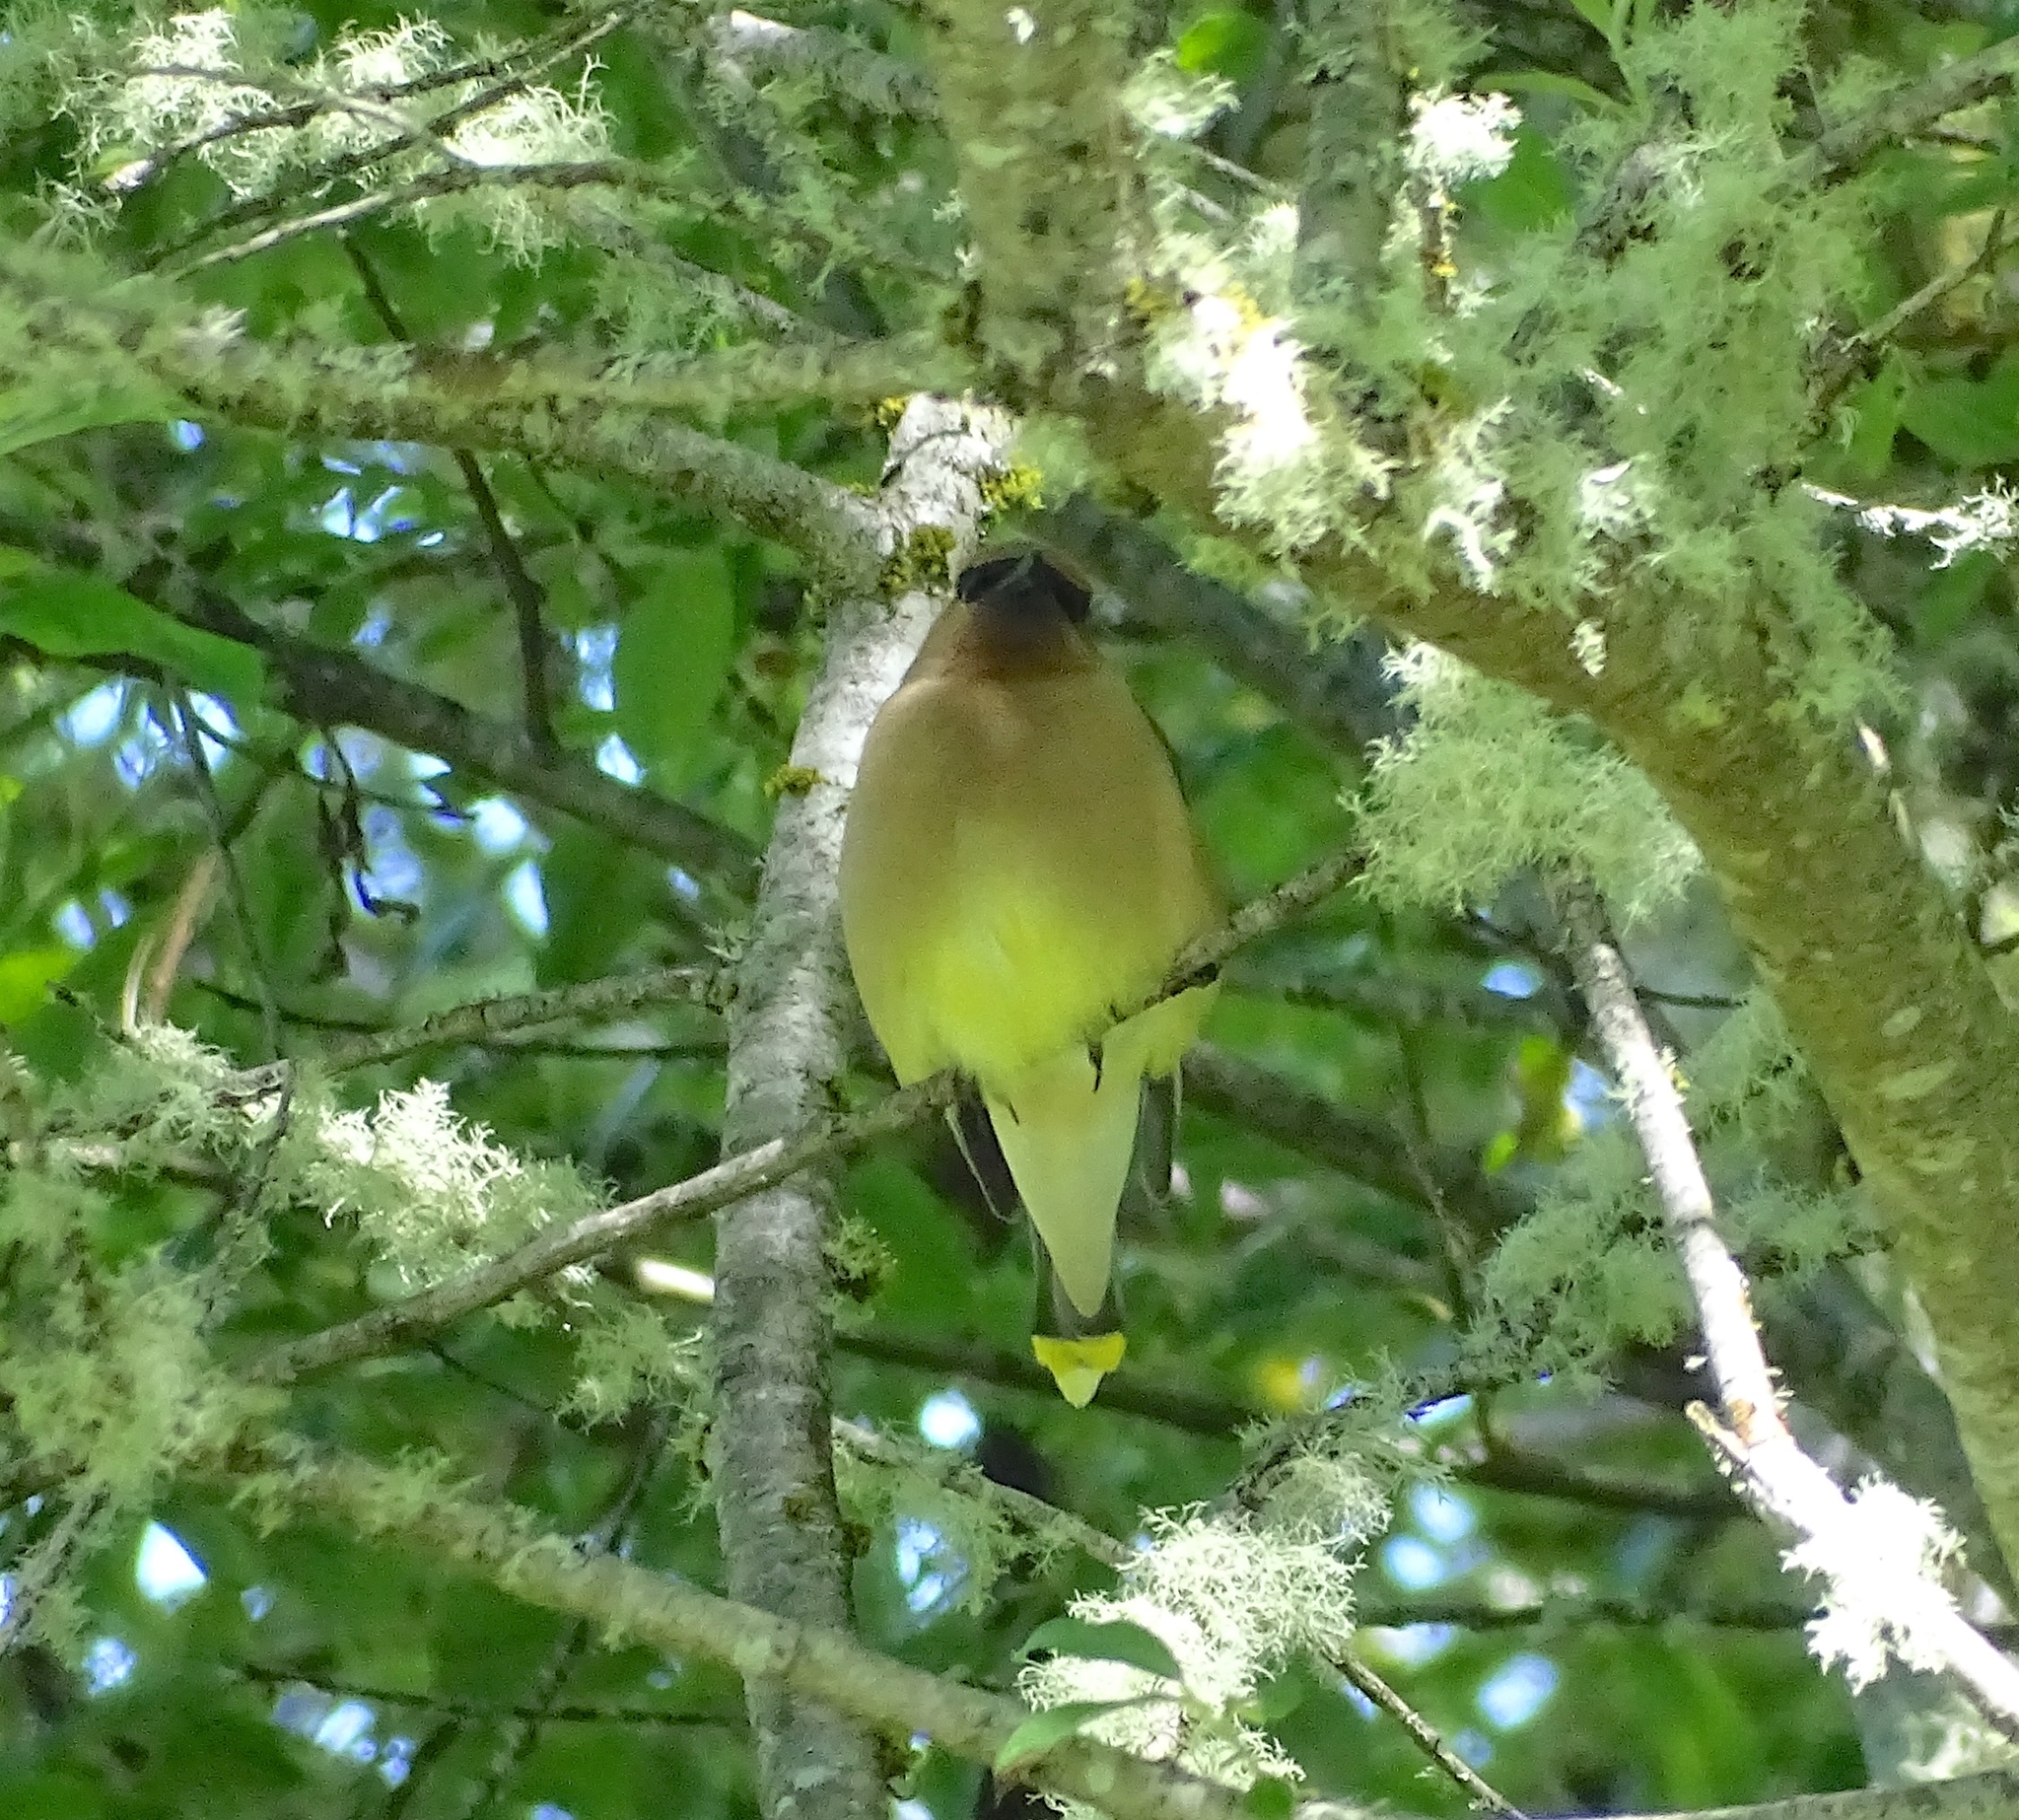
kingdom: Animalia
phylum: Chordata
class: Aves
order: Passeriformes
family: Bombycillidae
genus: Bombycilla
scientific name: Bombycilla cedrorum
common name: Cedar waxwing
